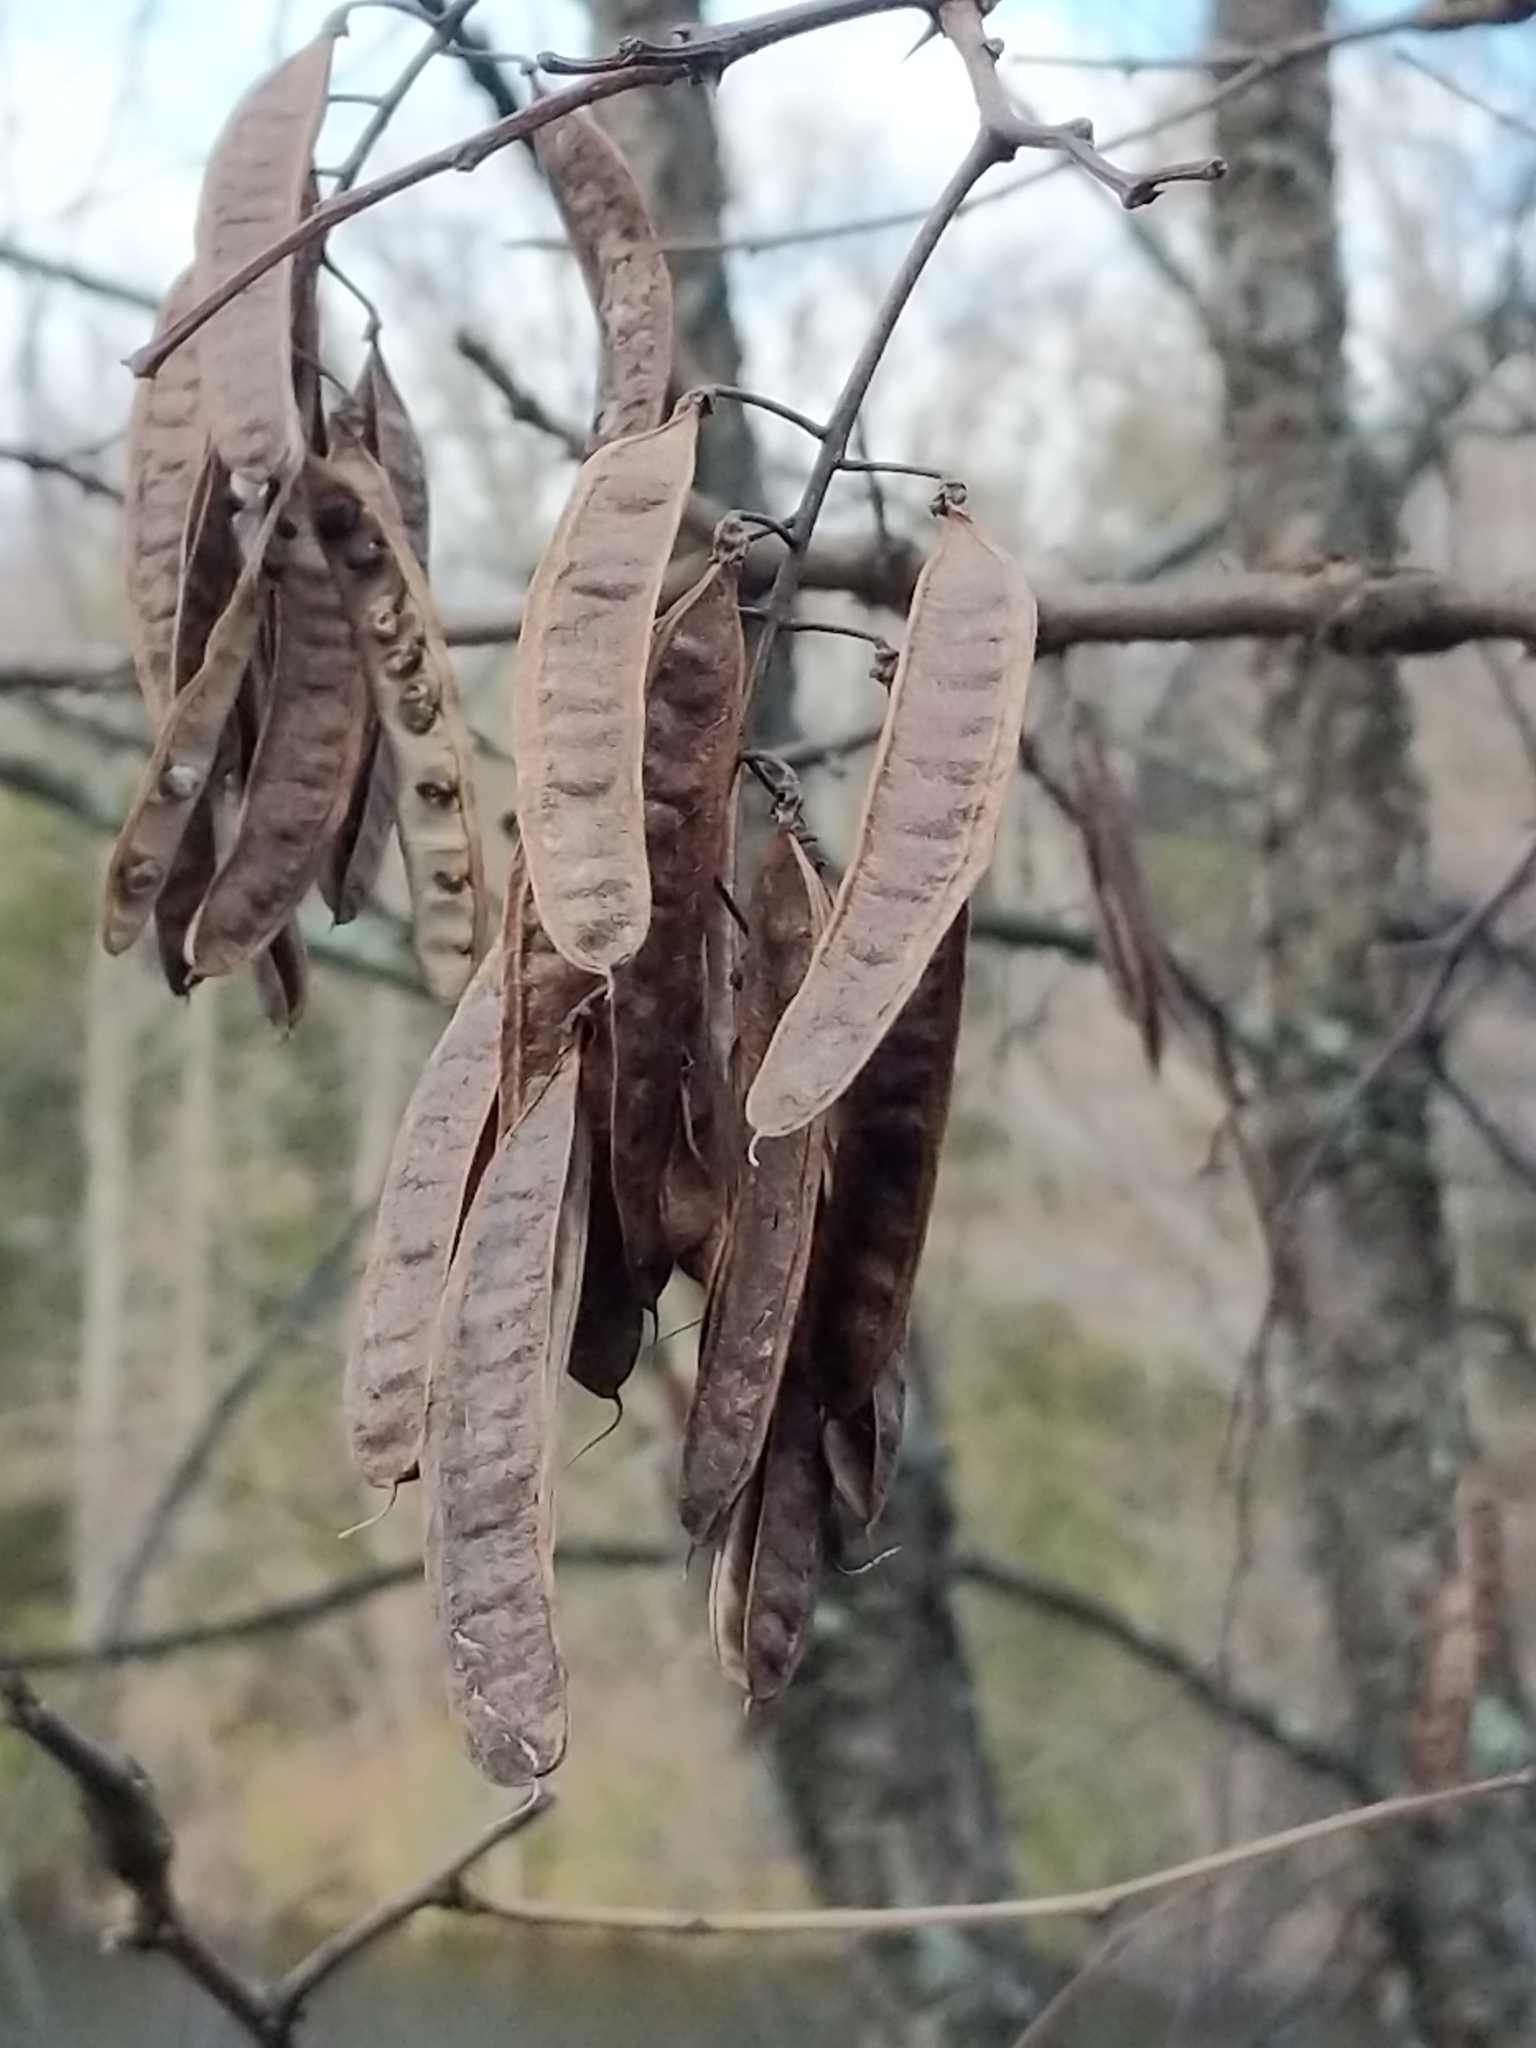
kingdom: Plantae
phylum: Tracheophyta
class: Magnoliopsida
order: Fabales
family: Fabaceae
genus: Robinia
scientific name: Robinia pseudoacacia
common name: Black locust
